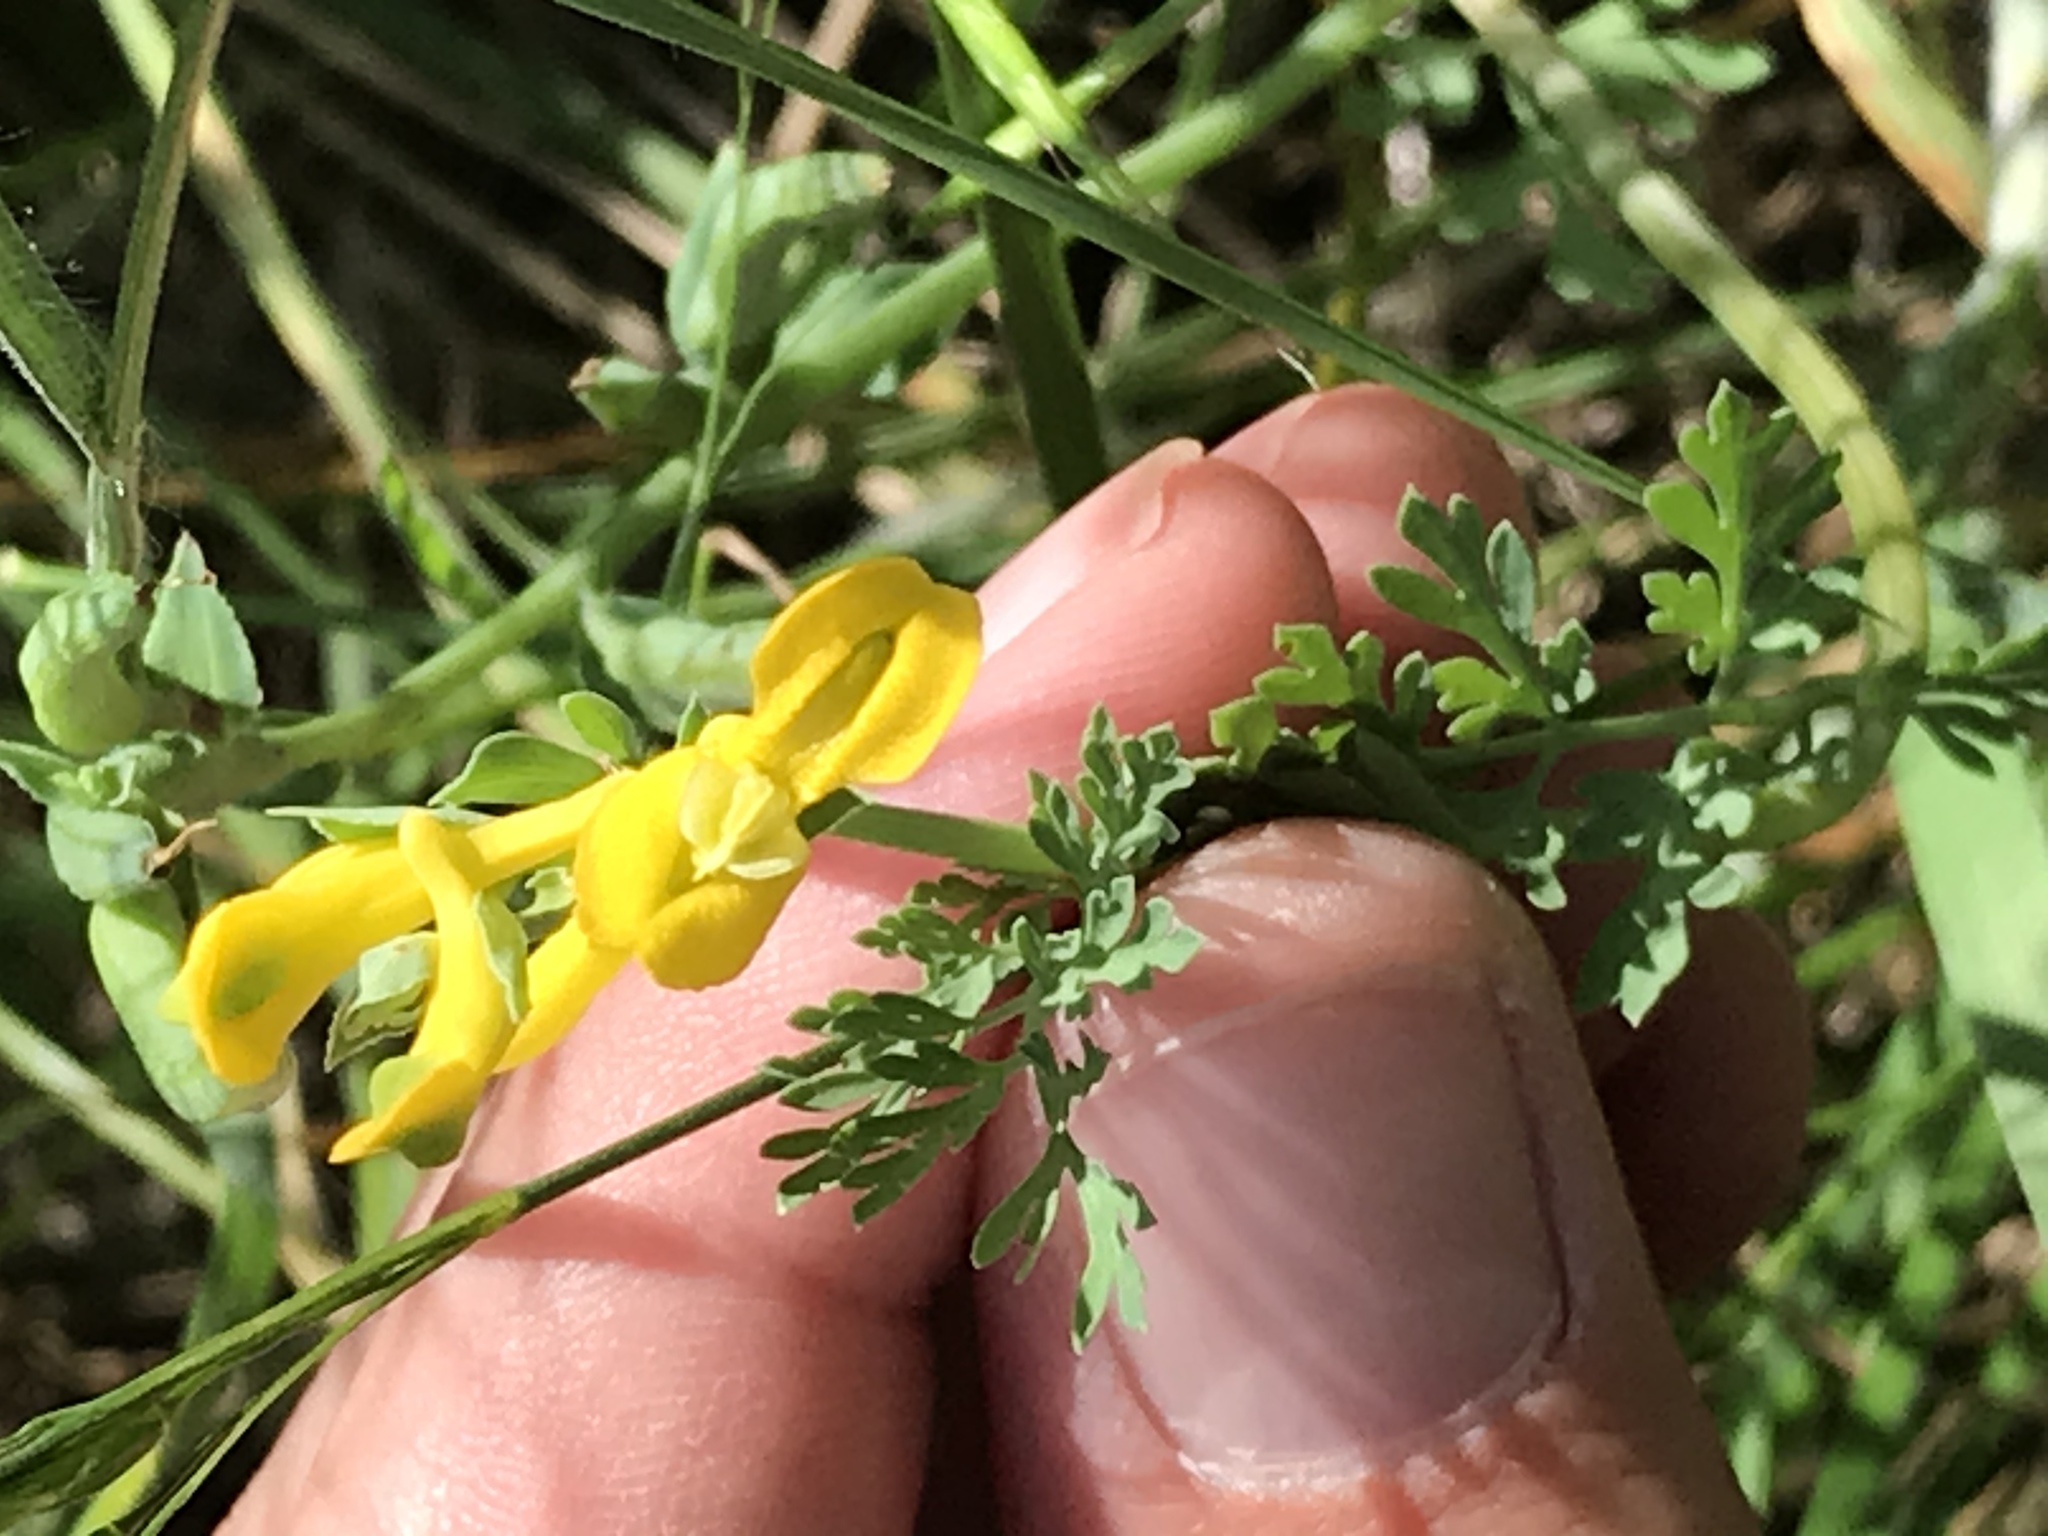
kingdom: Plantae
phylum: Tracheophyta
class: Magnoliopsida
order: Ranunculales
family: Papaveraceae
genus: Corydalis
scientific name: Corydalis aurea
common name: Golden corydalis
